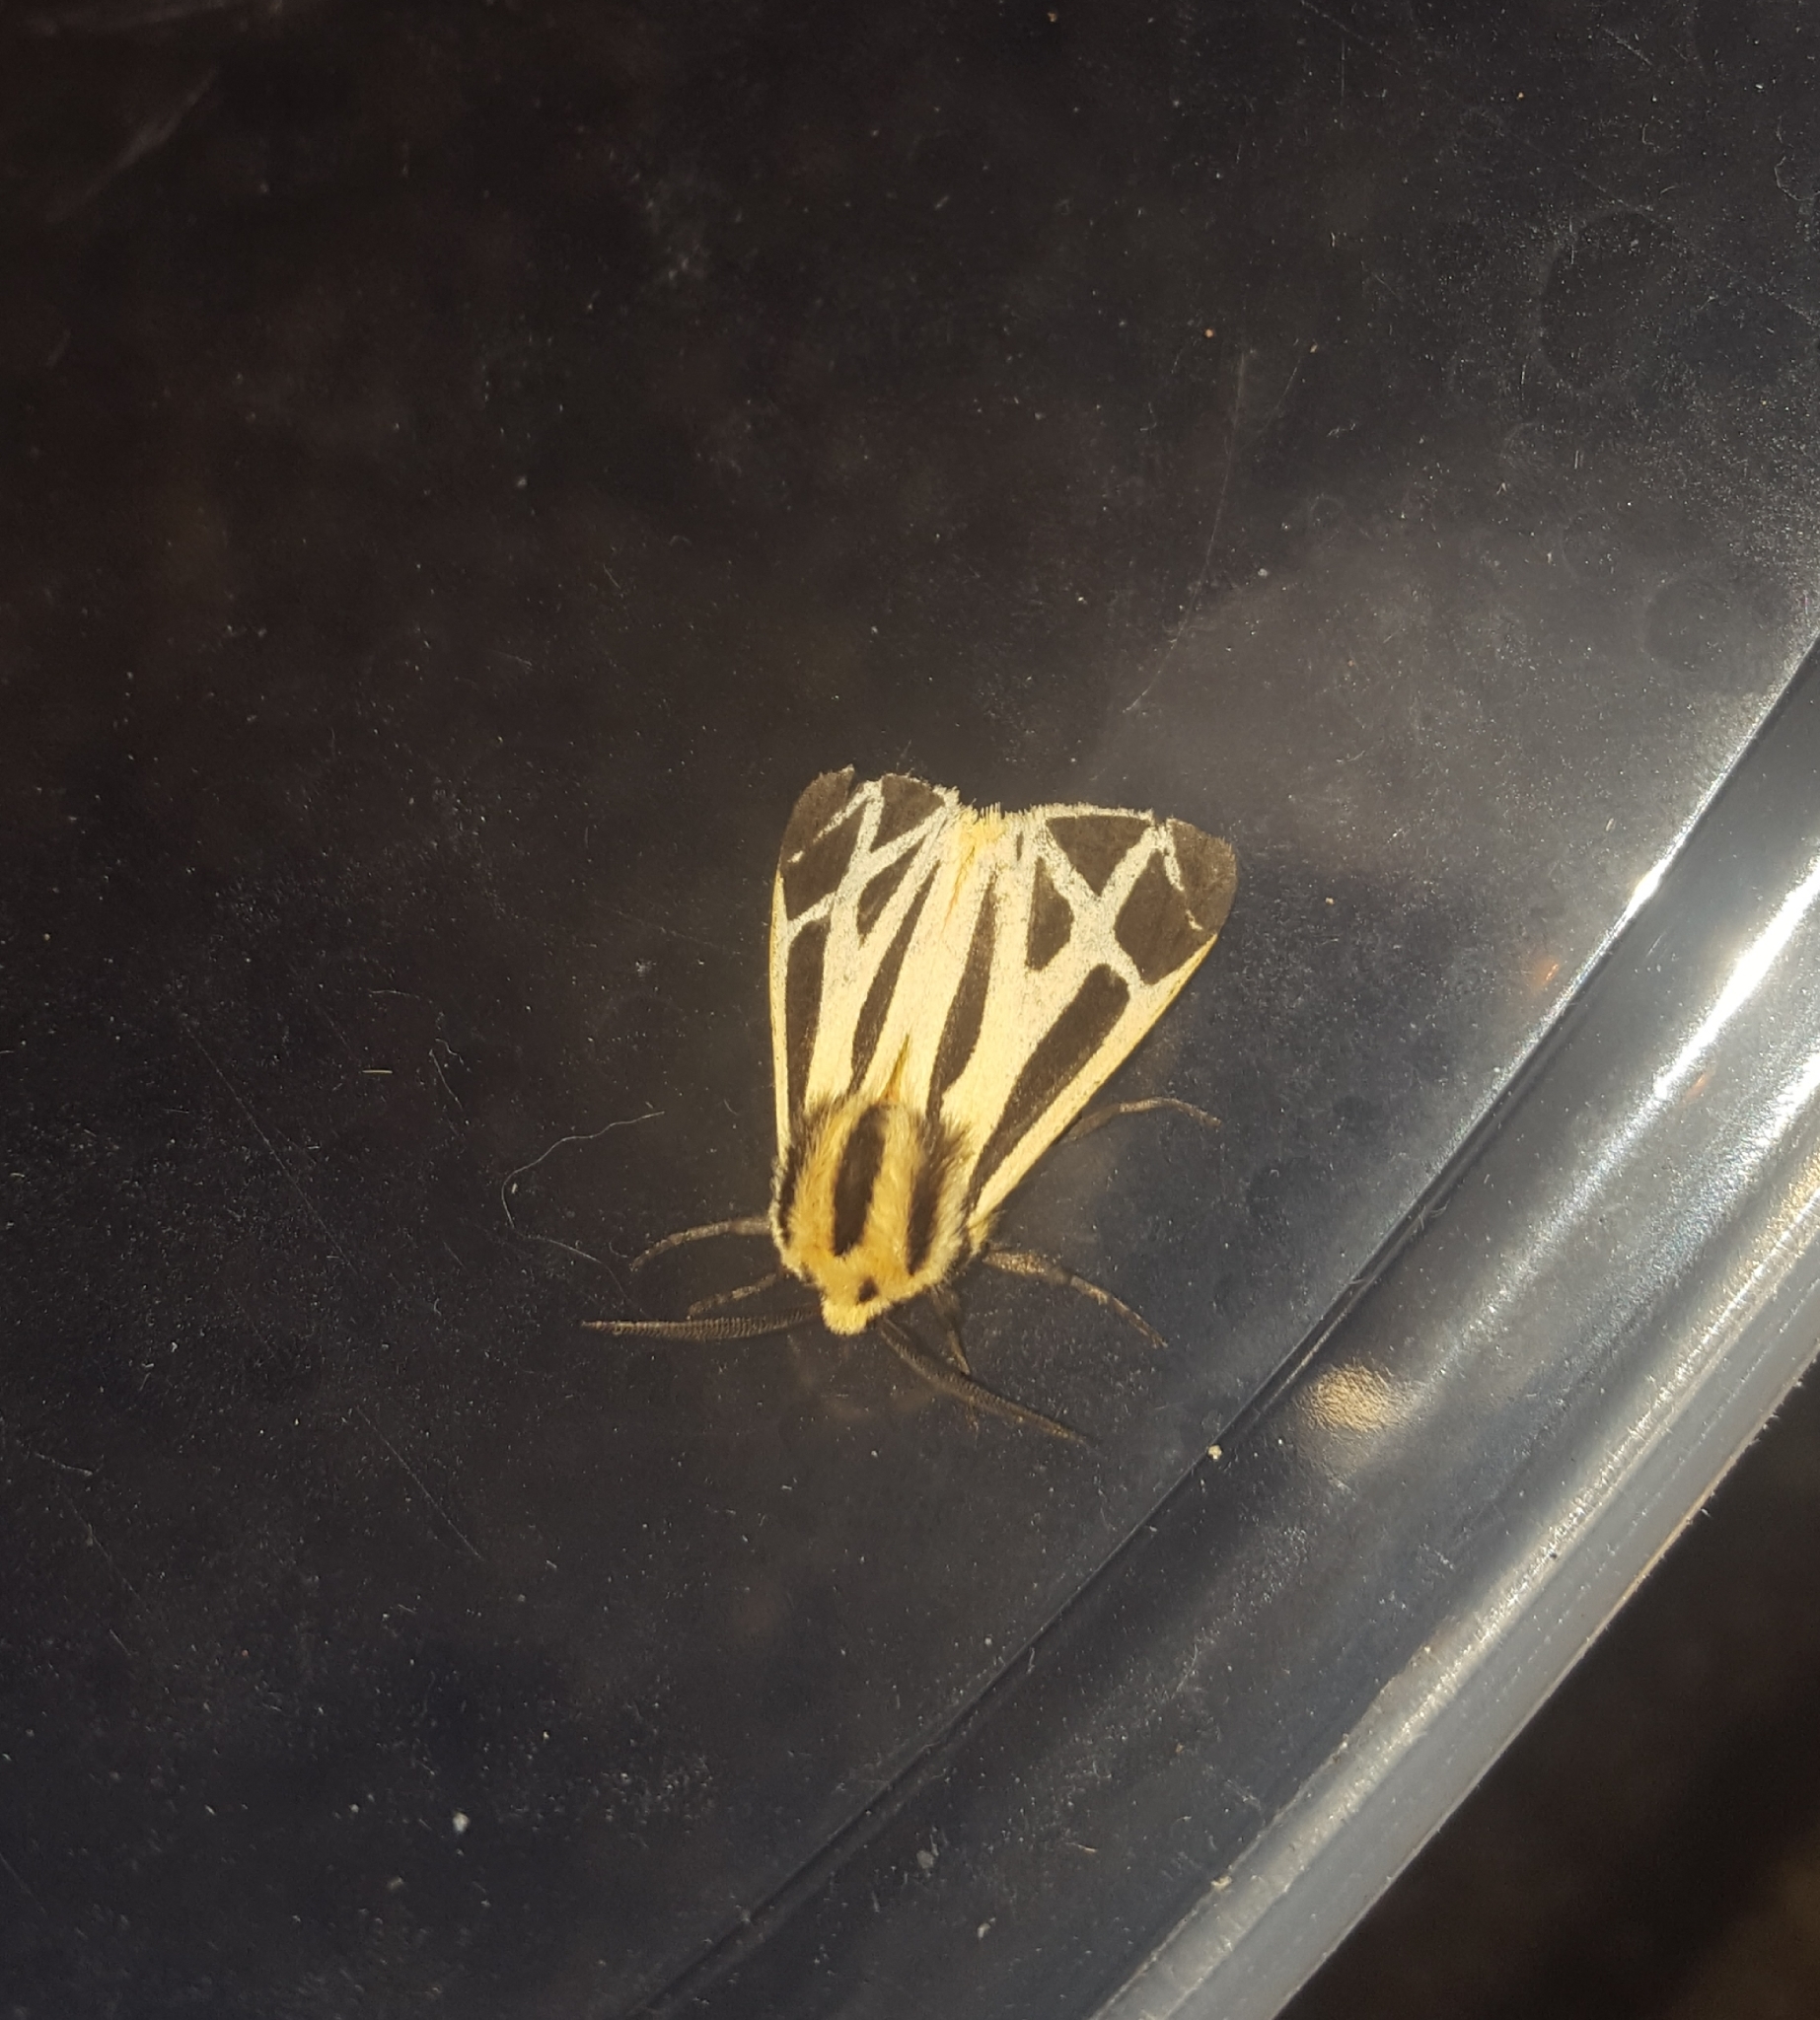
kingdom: Animalia
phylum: Arthropoda
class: Insecta
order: Lepidoptera
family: Erebidae
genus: Apantesis
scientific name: Apantesis phalerata
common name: Harnessed tiger moth
